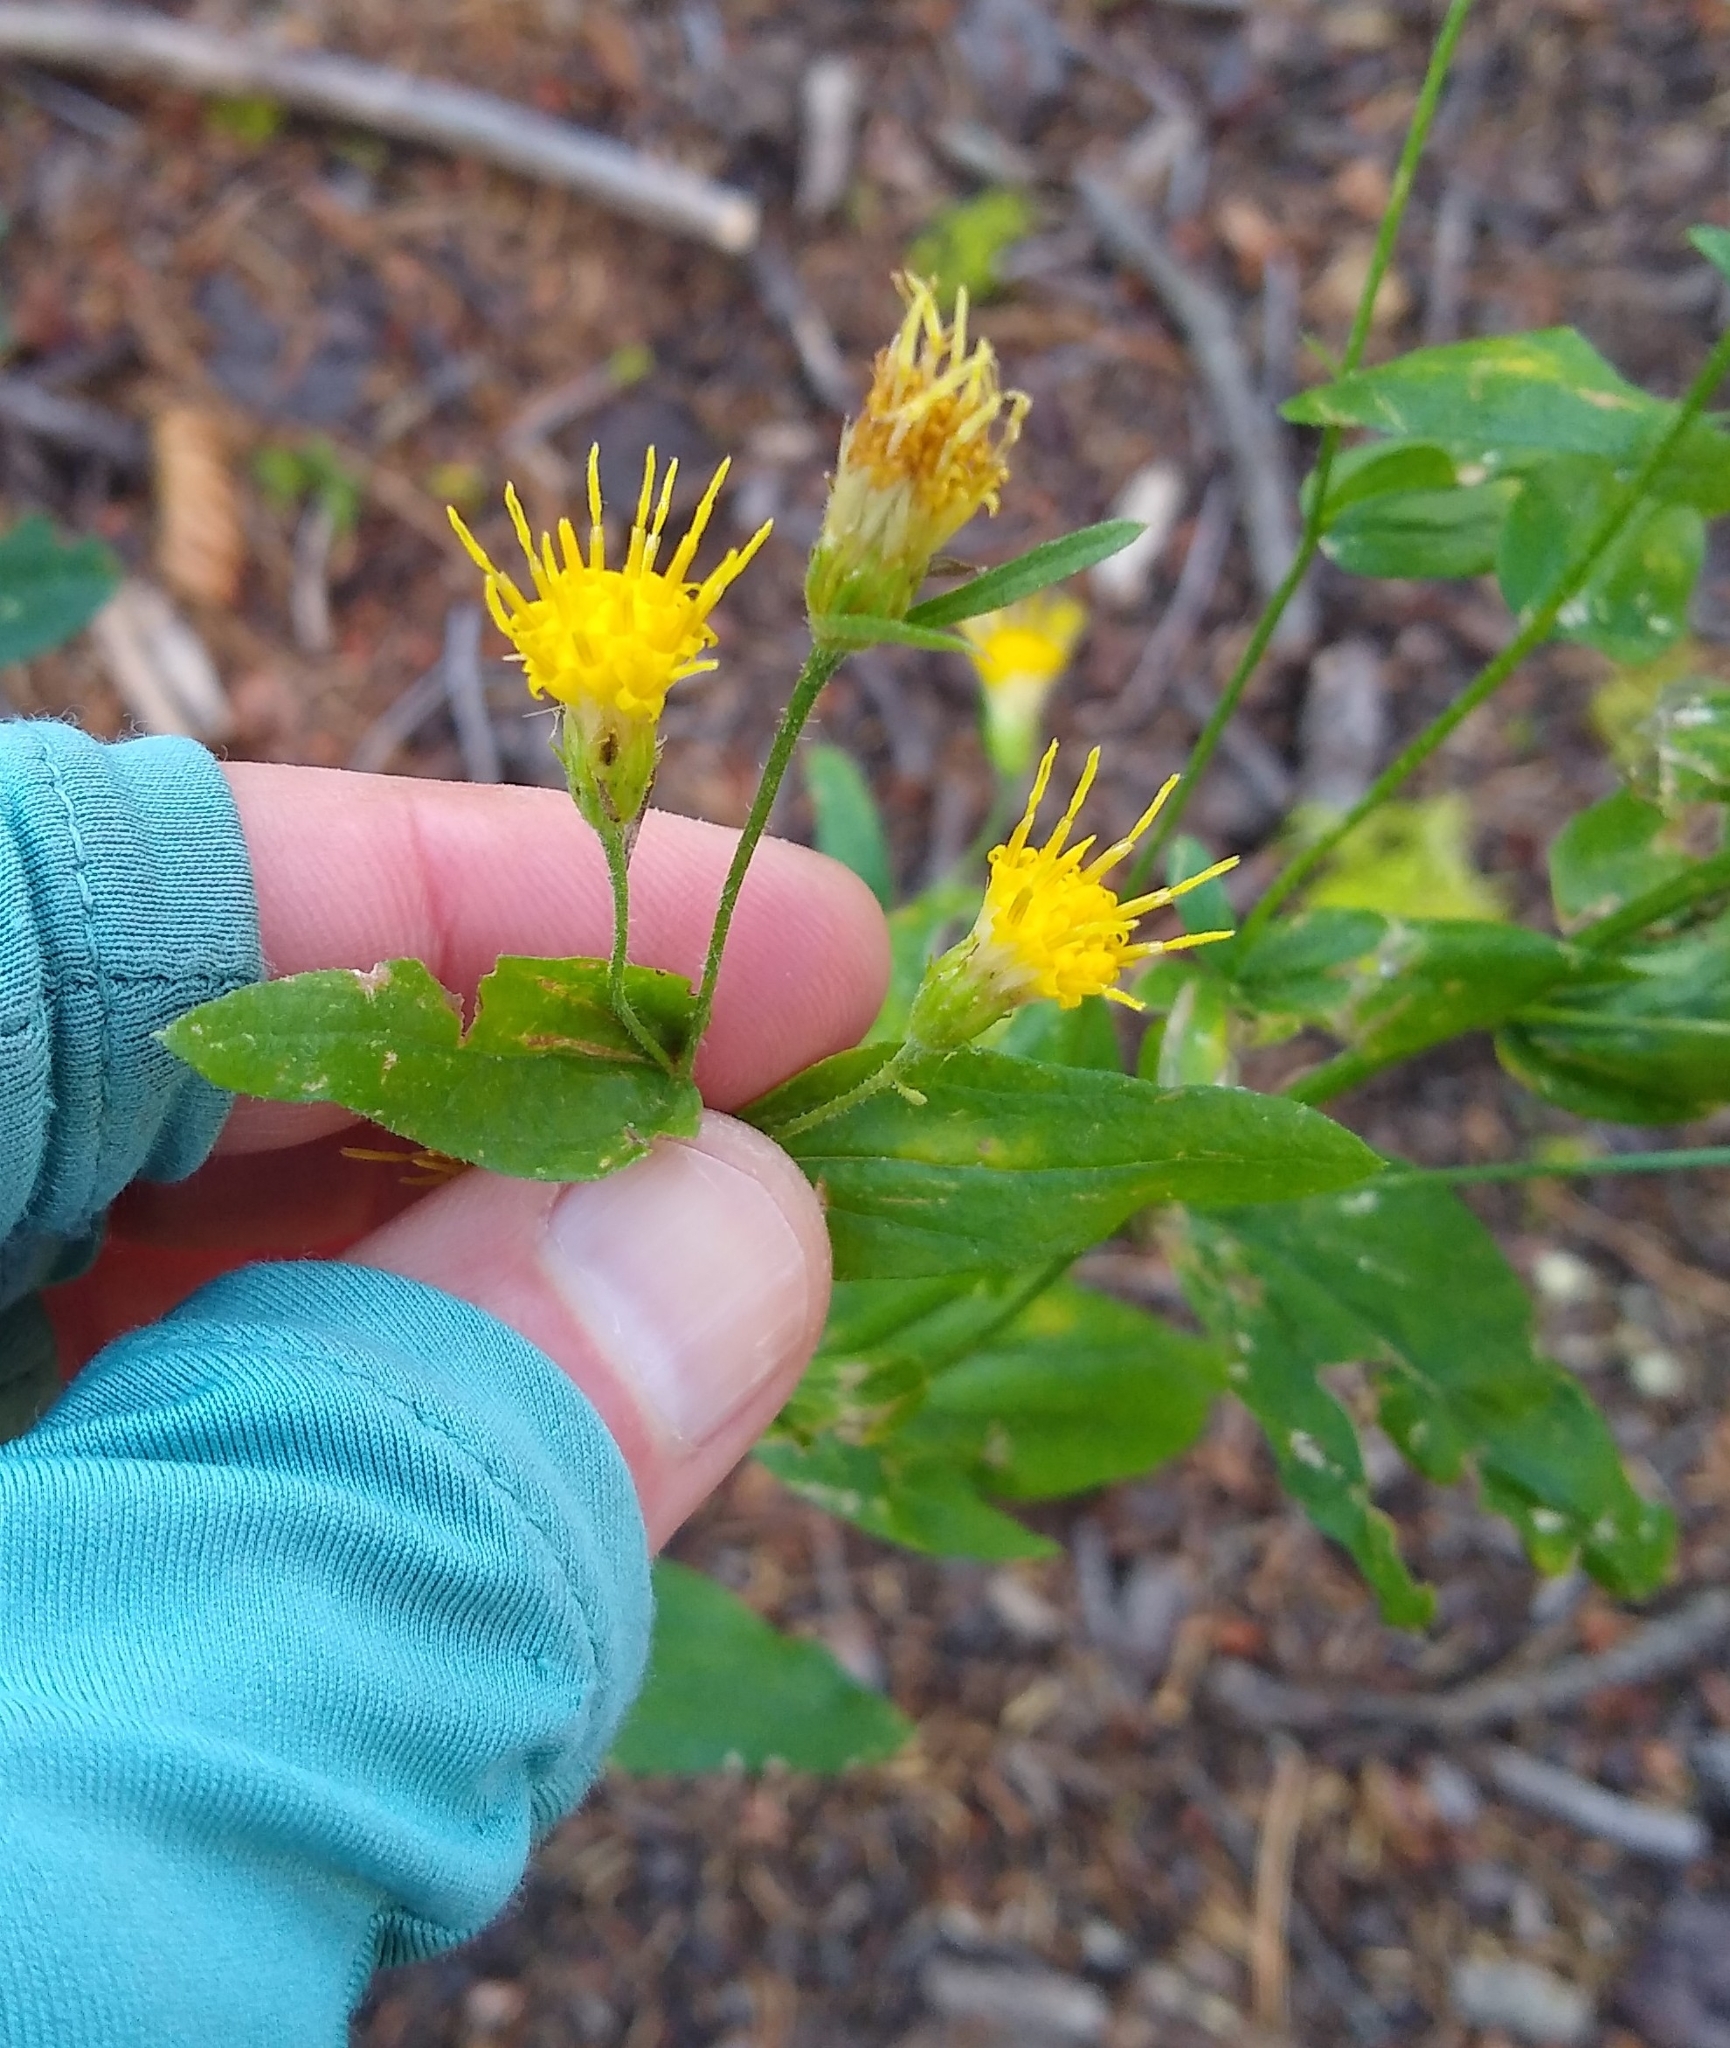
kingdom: Plantae
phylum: Tracheophyta
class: Magnoliopsida
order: Asterales
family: Asteraceae
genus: Eucephalus
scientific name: Eucephalus breweri
